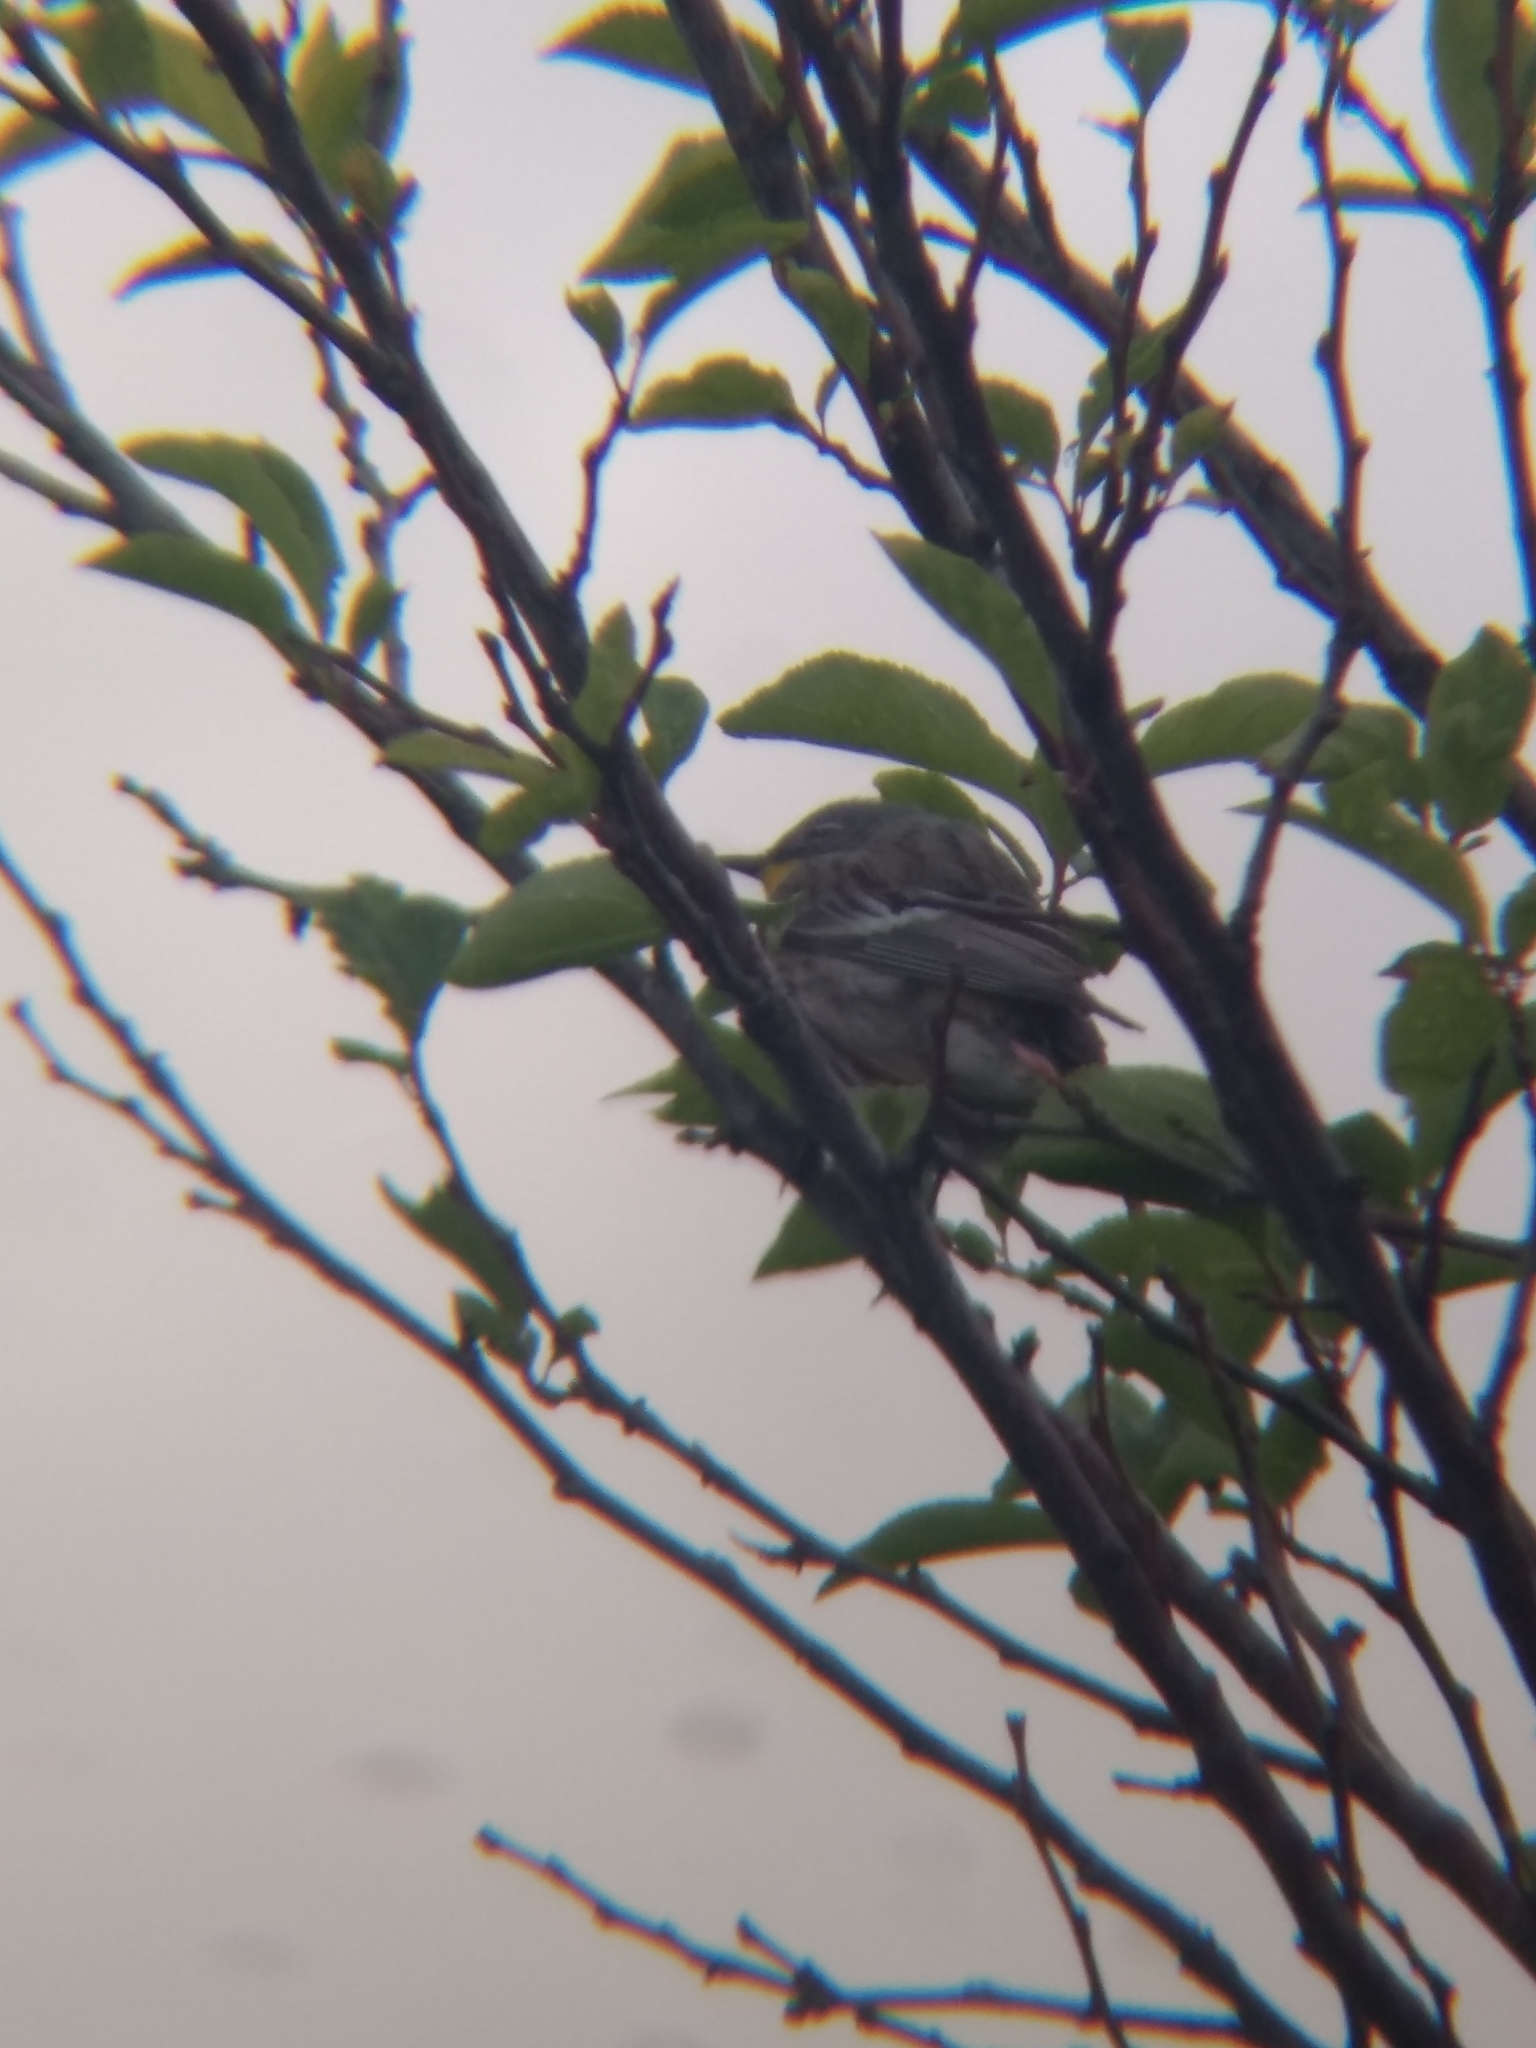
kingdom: Animalia
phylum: Chordata
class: Aves
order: Passeriformes
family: Parulidae
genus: Setophaga
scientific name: Setophaga coronata
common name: Myrtle warbler
